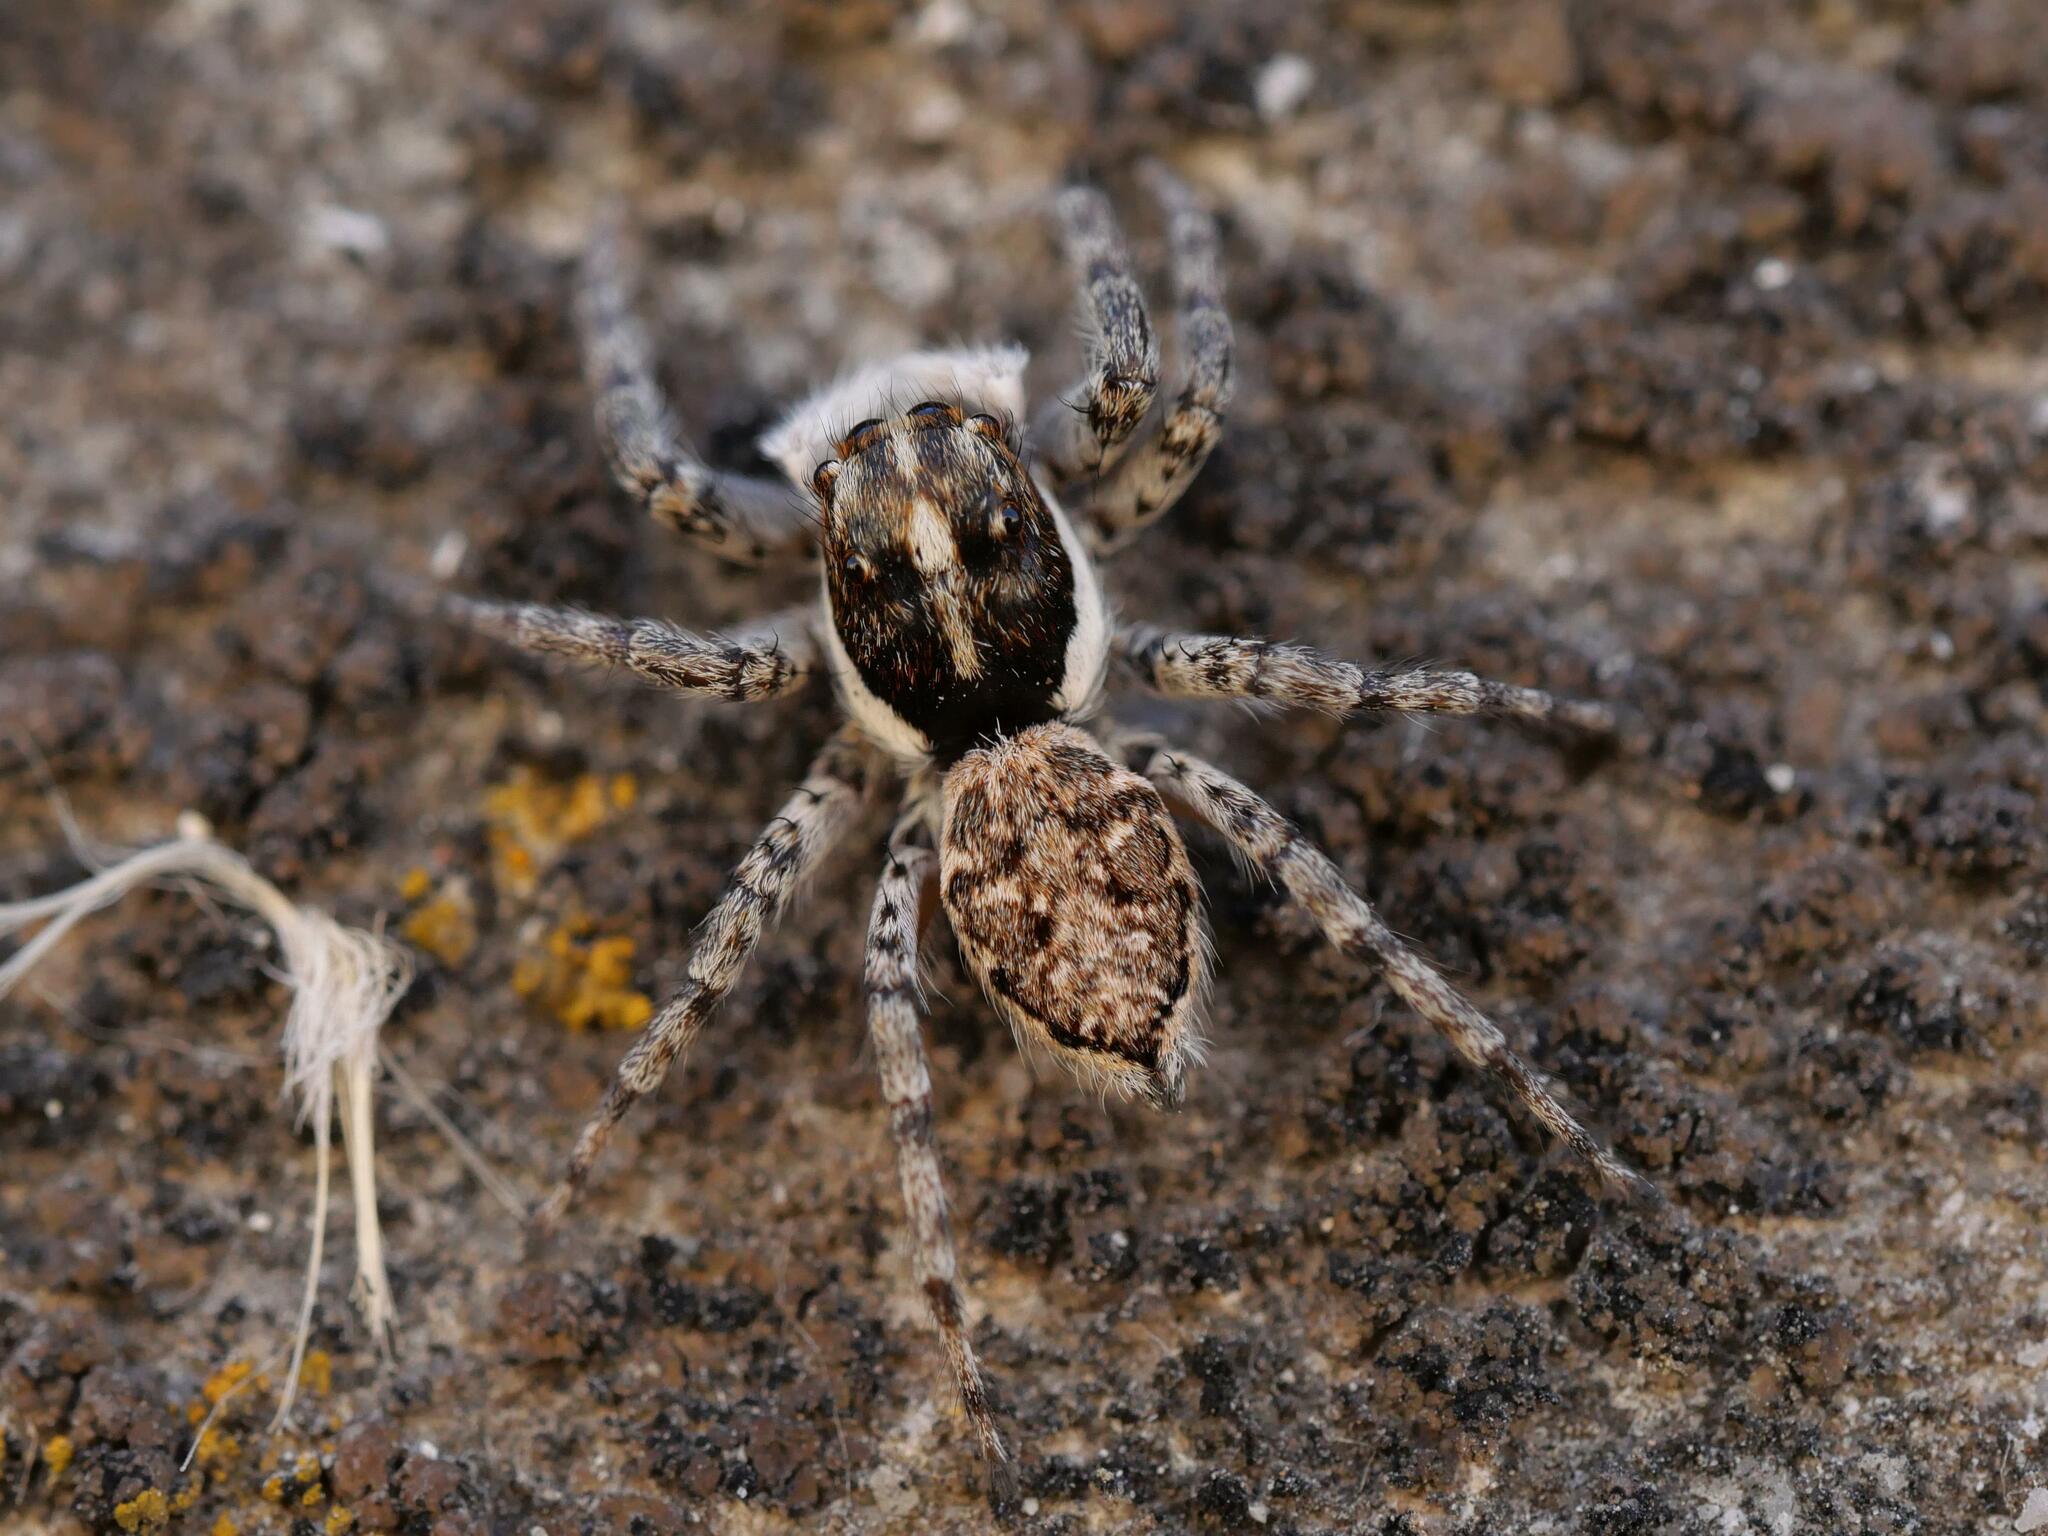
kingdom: Animalia
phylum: Arthropoda
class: Arachnida
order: Araneae
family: Salticidae
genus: Menemerus
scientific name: Menemerus semilimbatus
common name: Jumping spider
